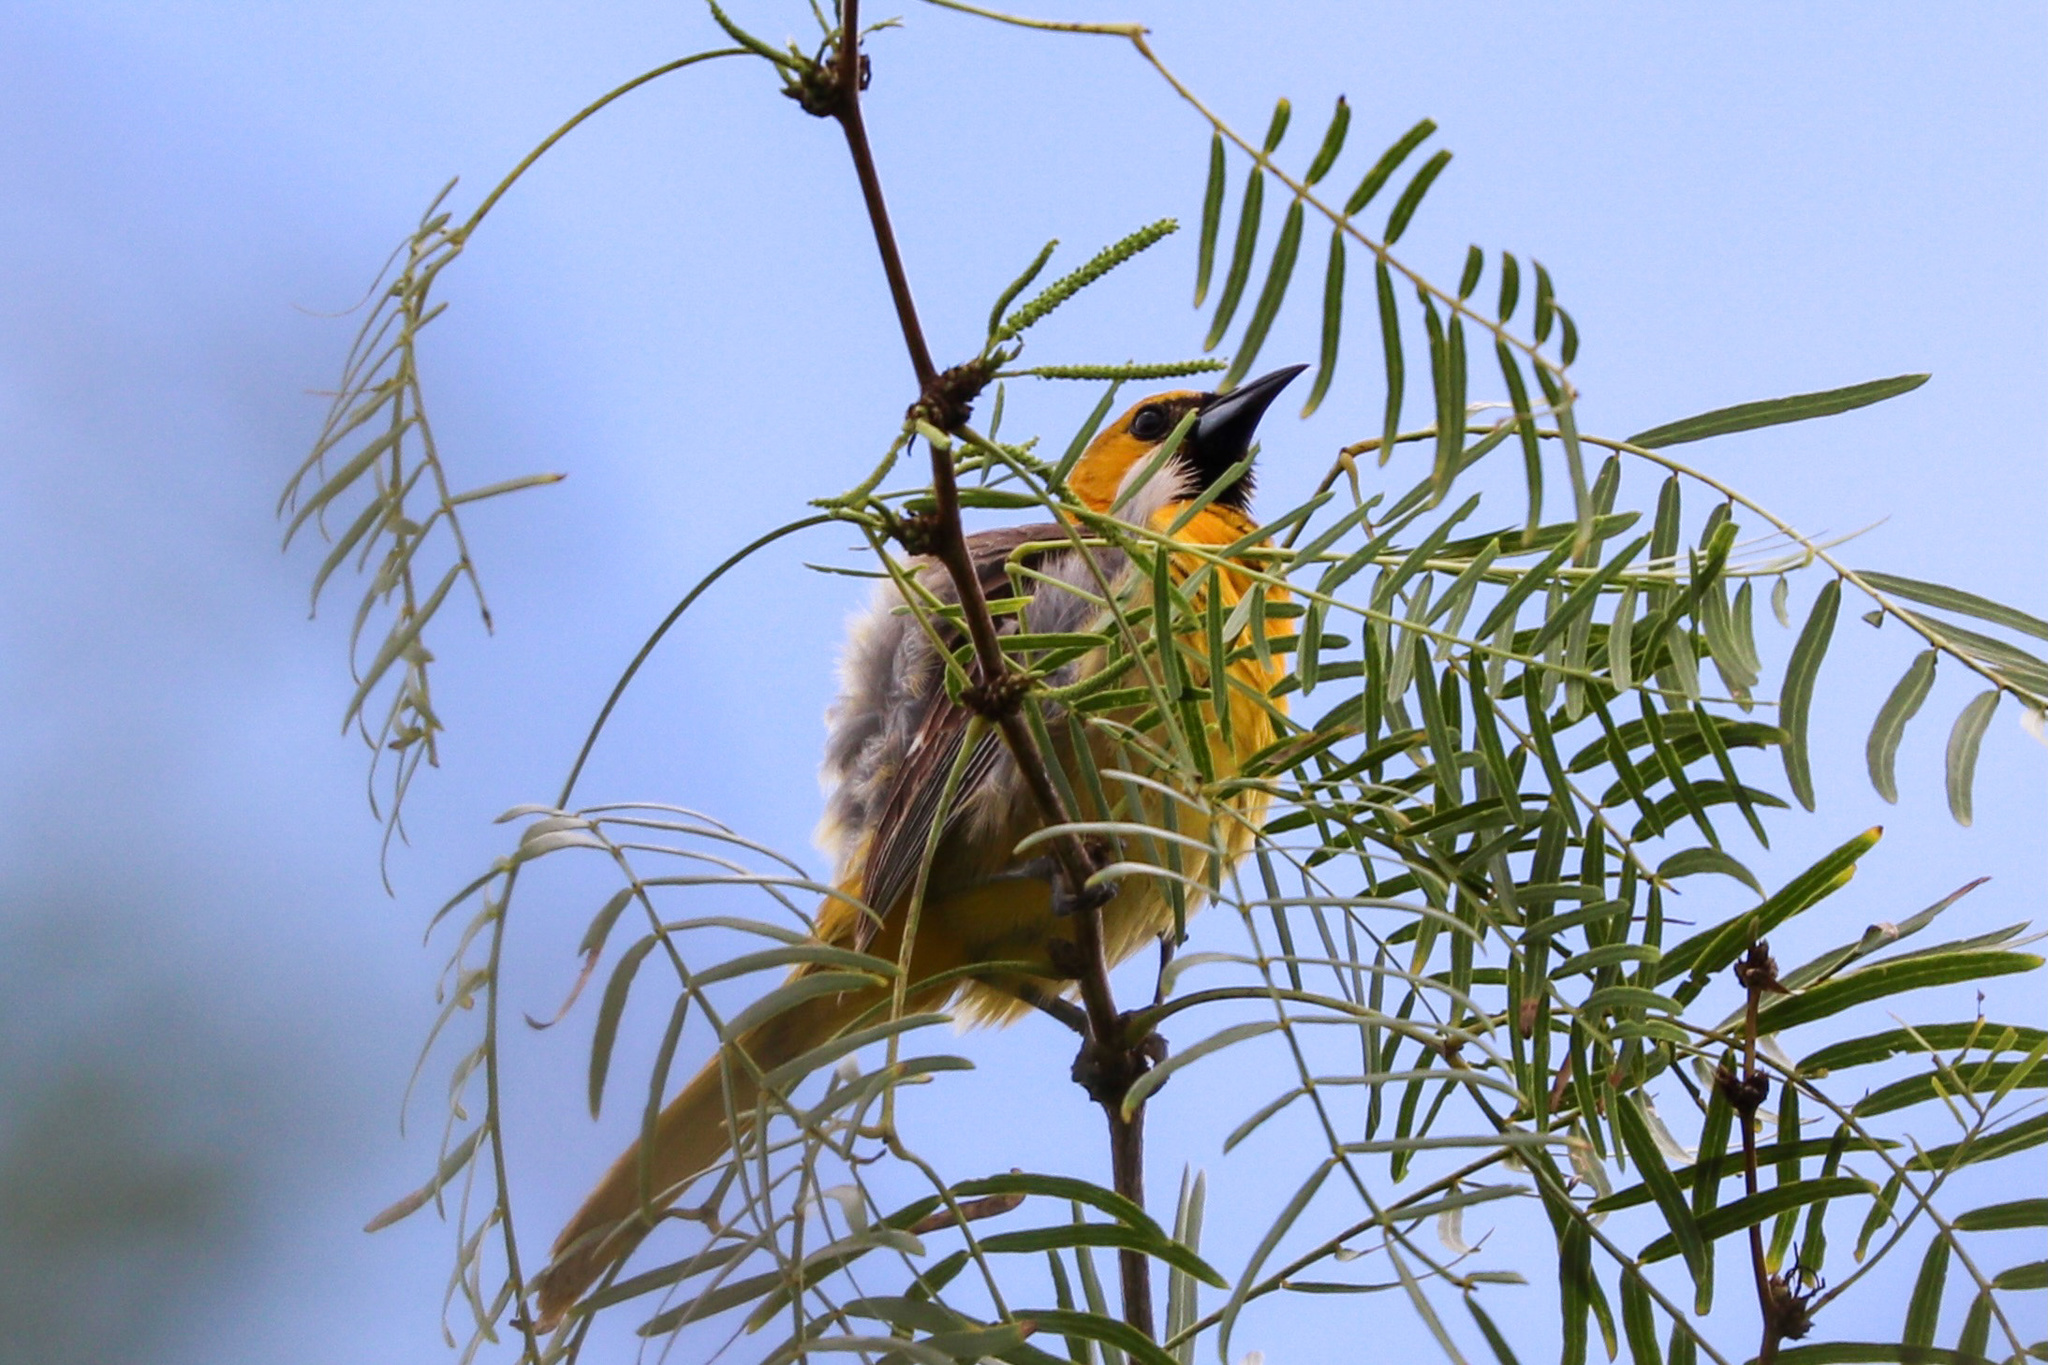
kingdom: Animalia
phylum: Chordata
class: Aves
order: Passeriformes
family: Icteridae
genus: Icterus
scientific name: Icterus cucullatus
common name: Hooded oriole
